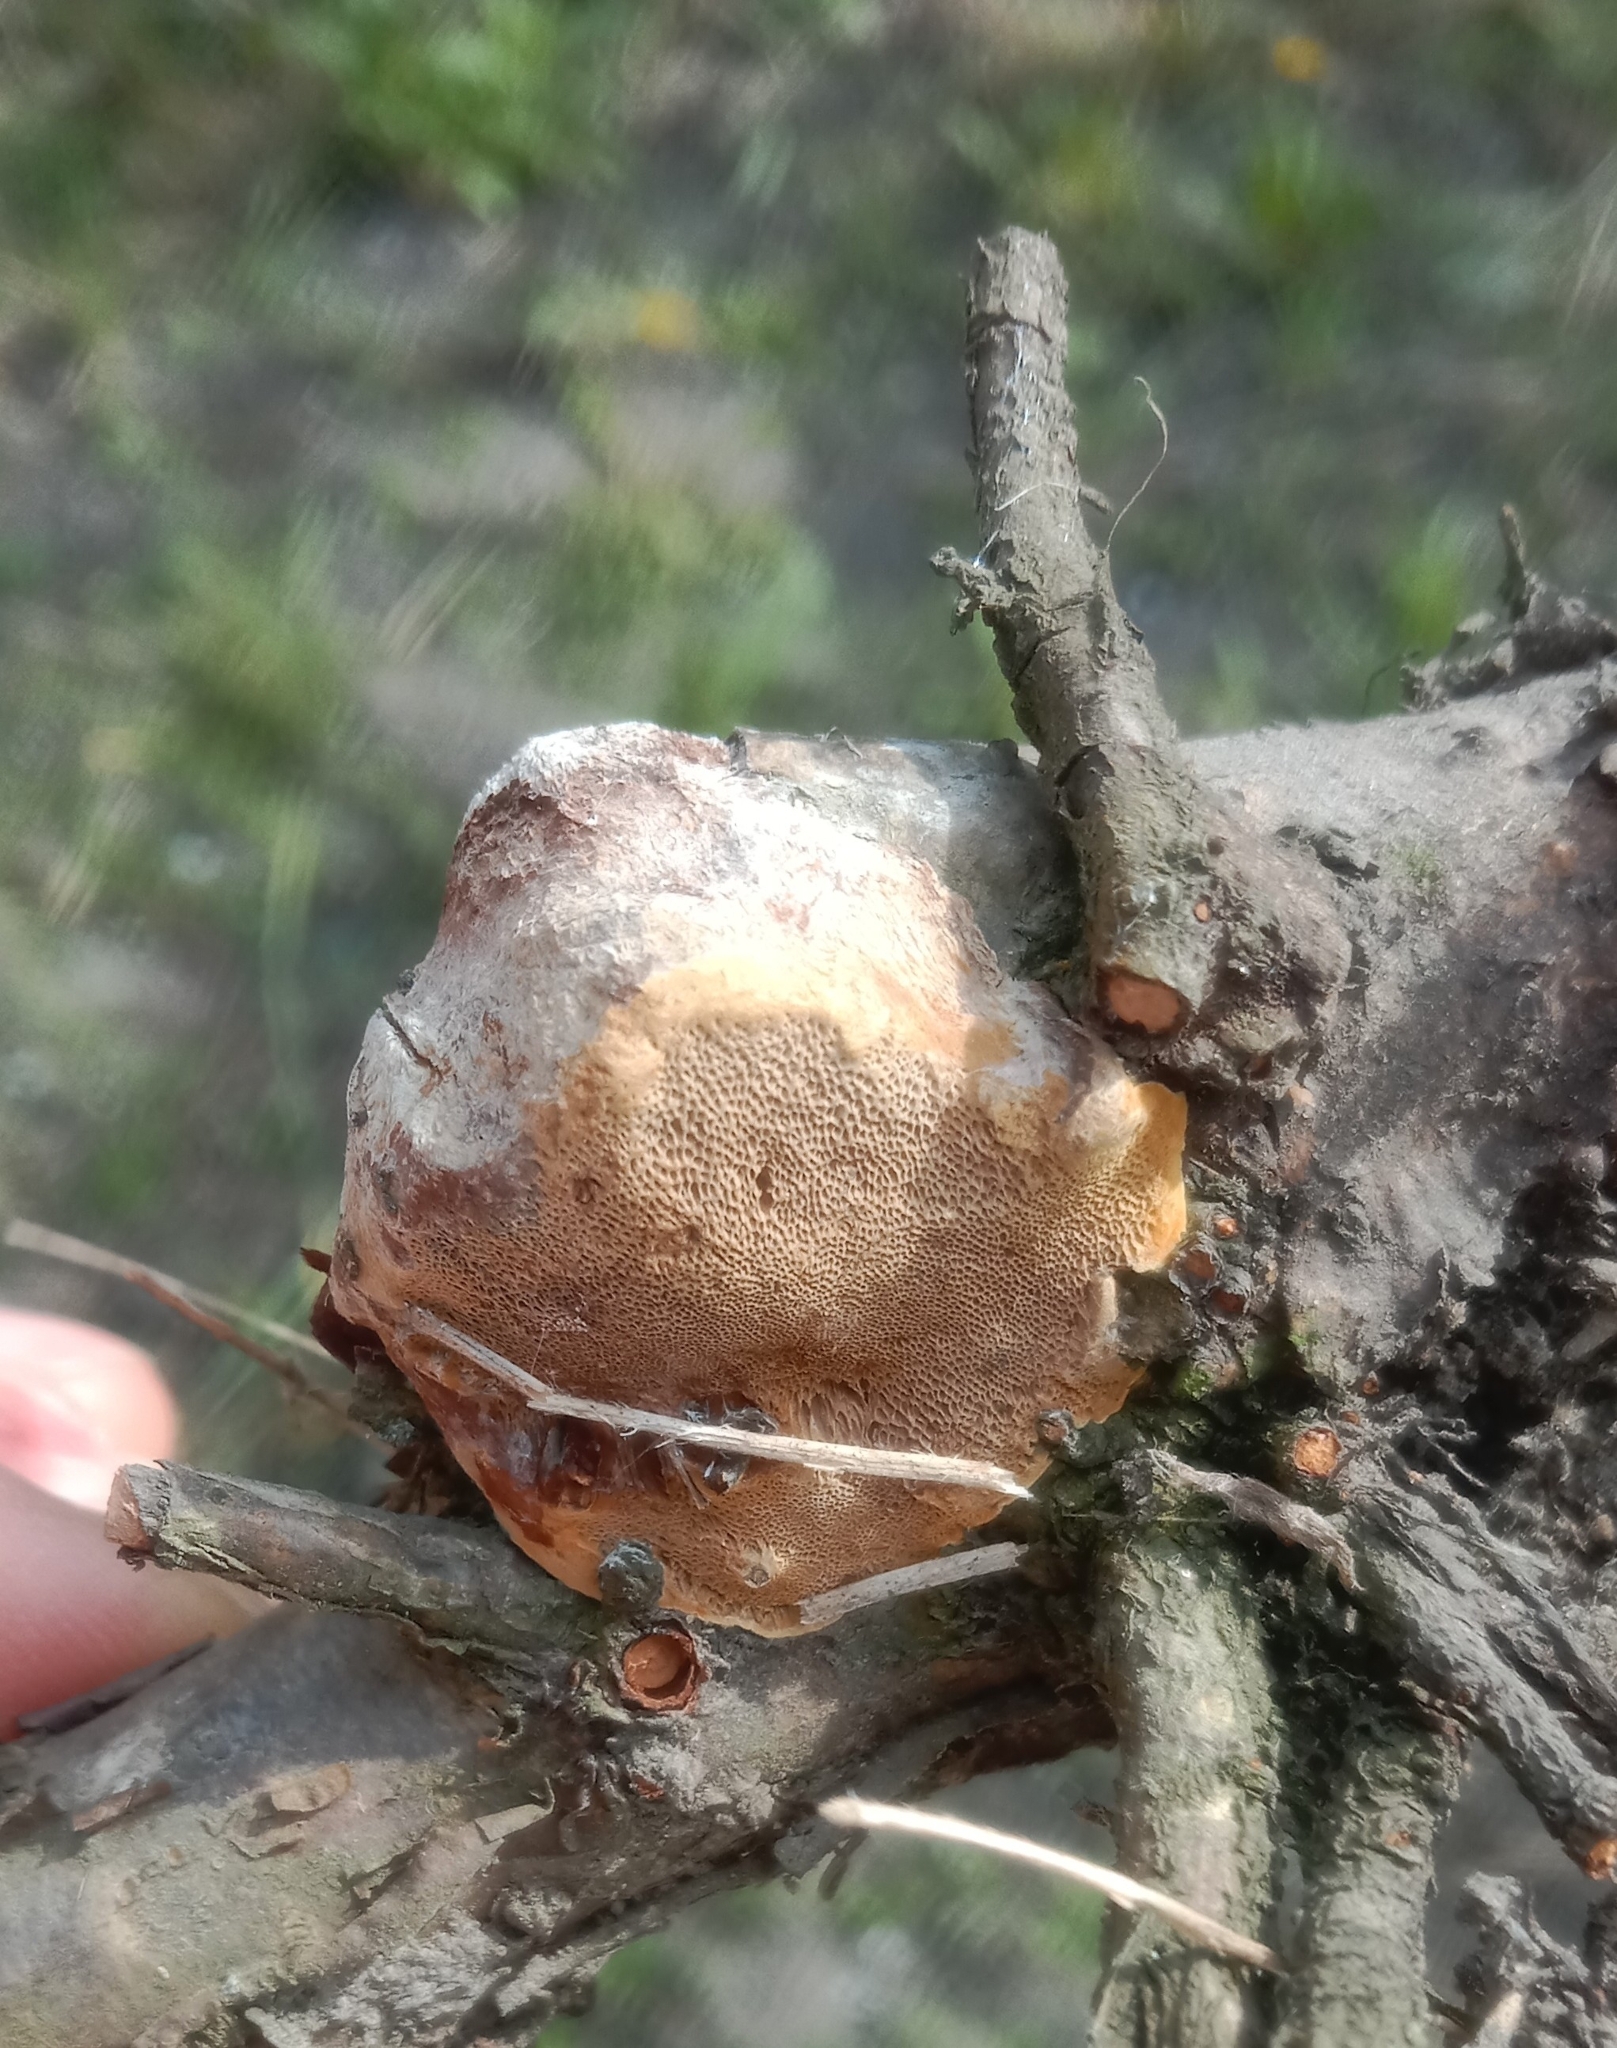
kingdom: Fungi
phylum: Basidiomycota
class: Agaricomycetes
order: Hymenochaetales
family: Hymenochaetaceae
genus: Phellinus
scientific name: Phellinus pomaceus
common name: Cushion bracket
